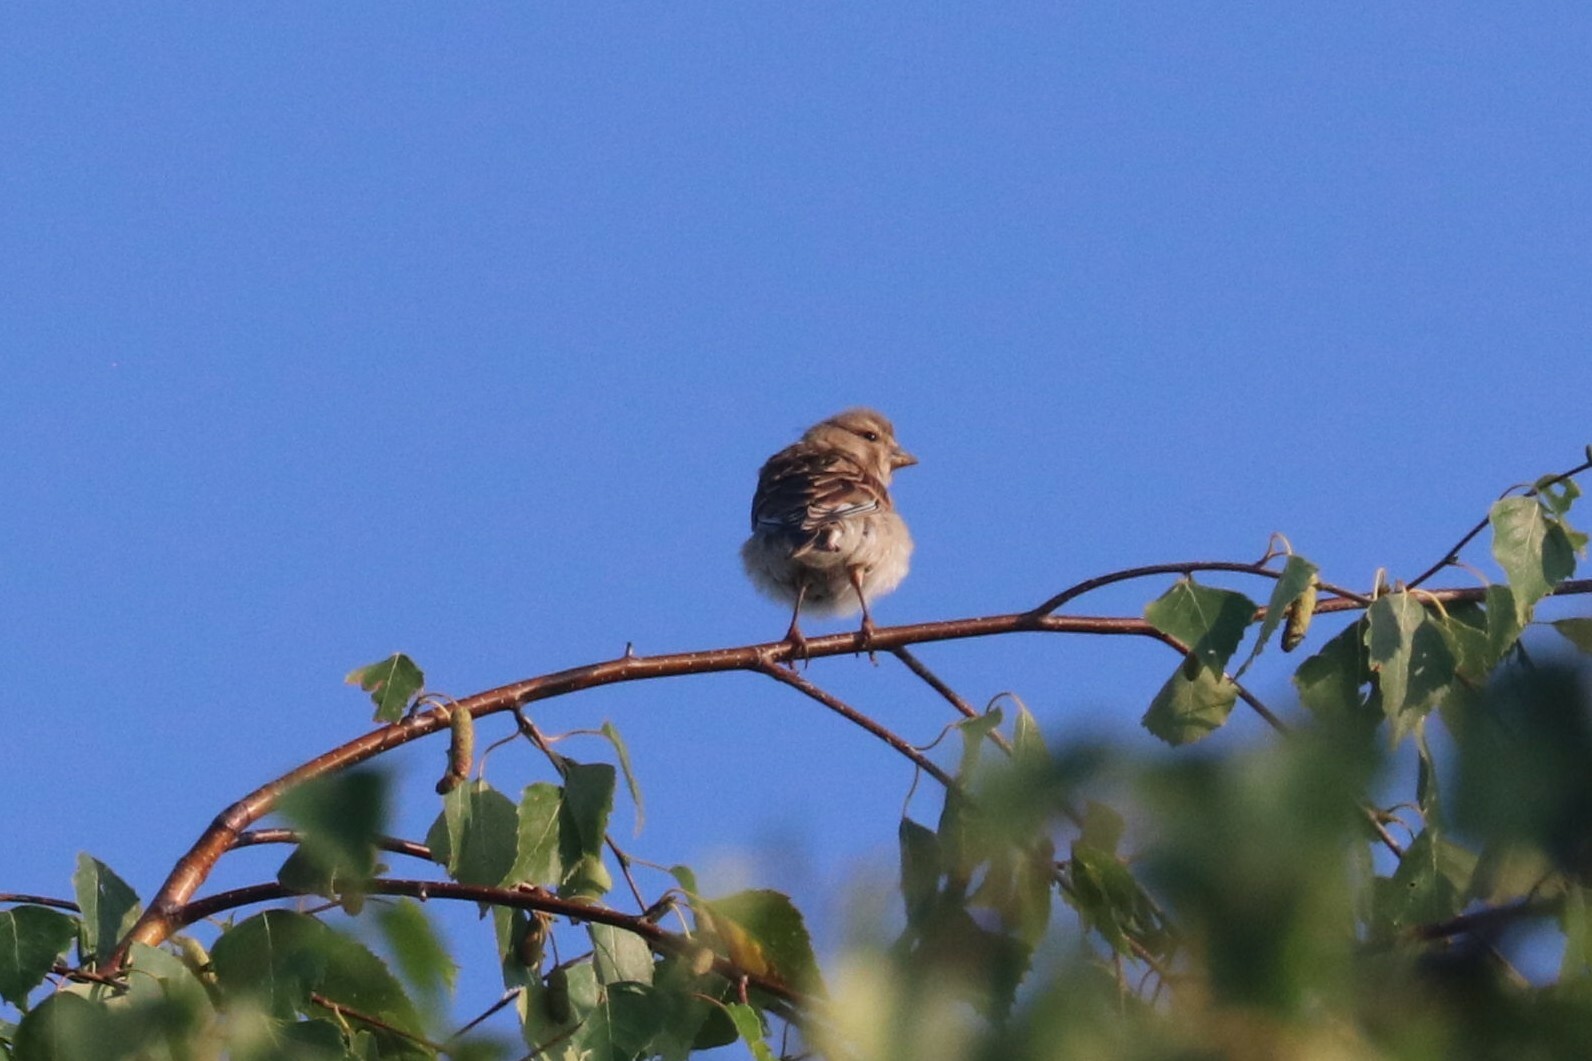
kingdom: Animalia
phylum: Chordata
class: Aves
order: Passeriformes
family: Fringillidae
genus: Linaria
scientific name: Linaria cannabina
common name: Common linnet
